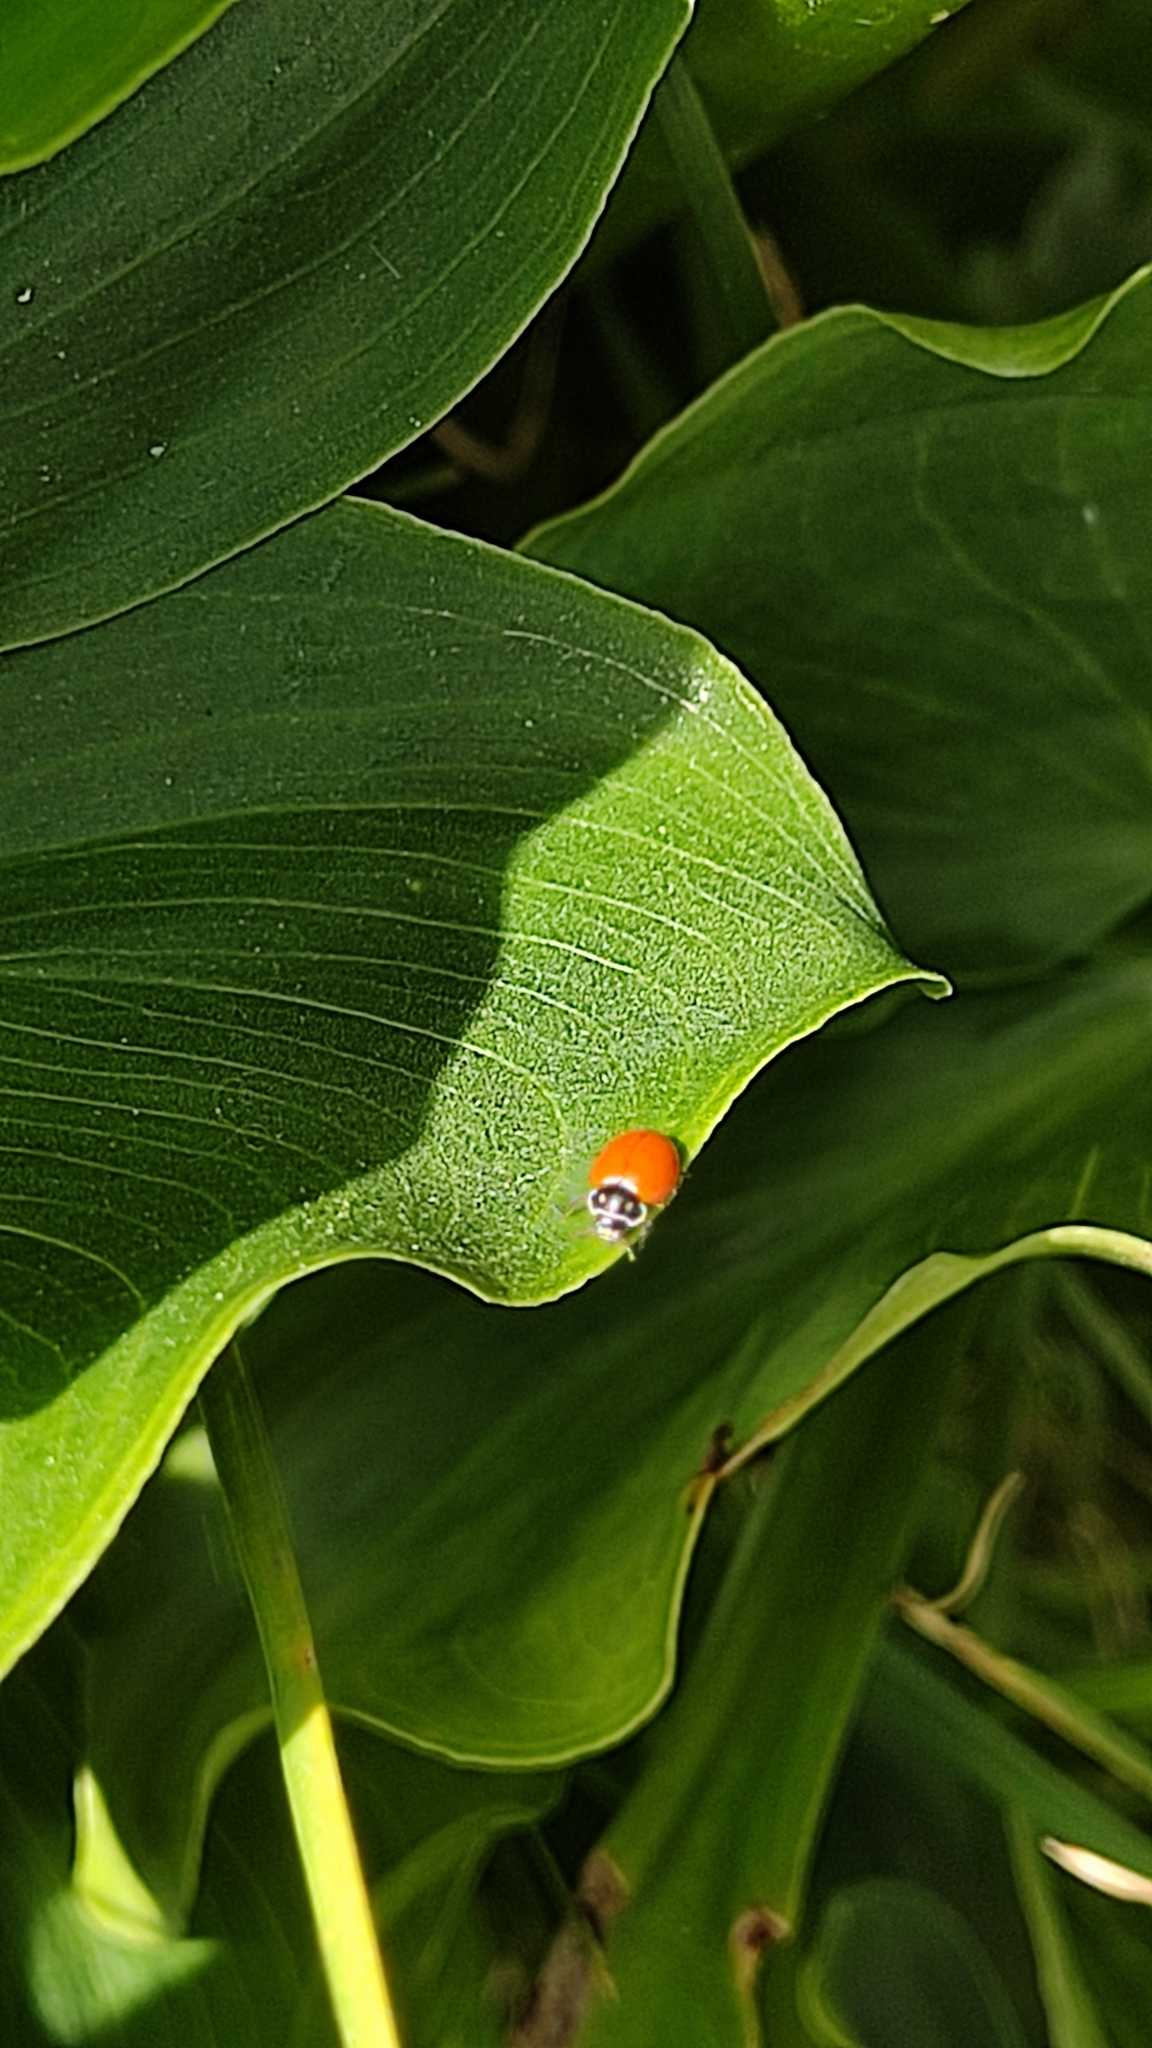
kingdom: Animalia
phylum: Arthropoda
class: Insecta
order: Coleoptera
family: Coccinellidae
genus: Cycloneda
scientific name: Cycloneda emarginata
